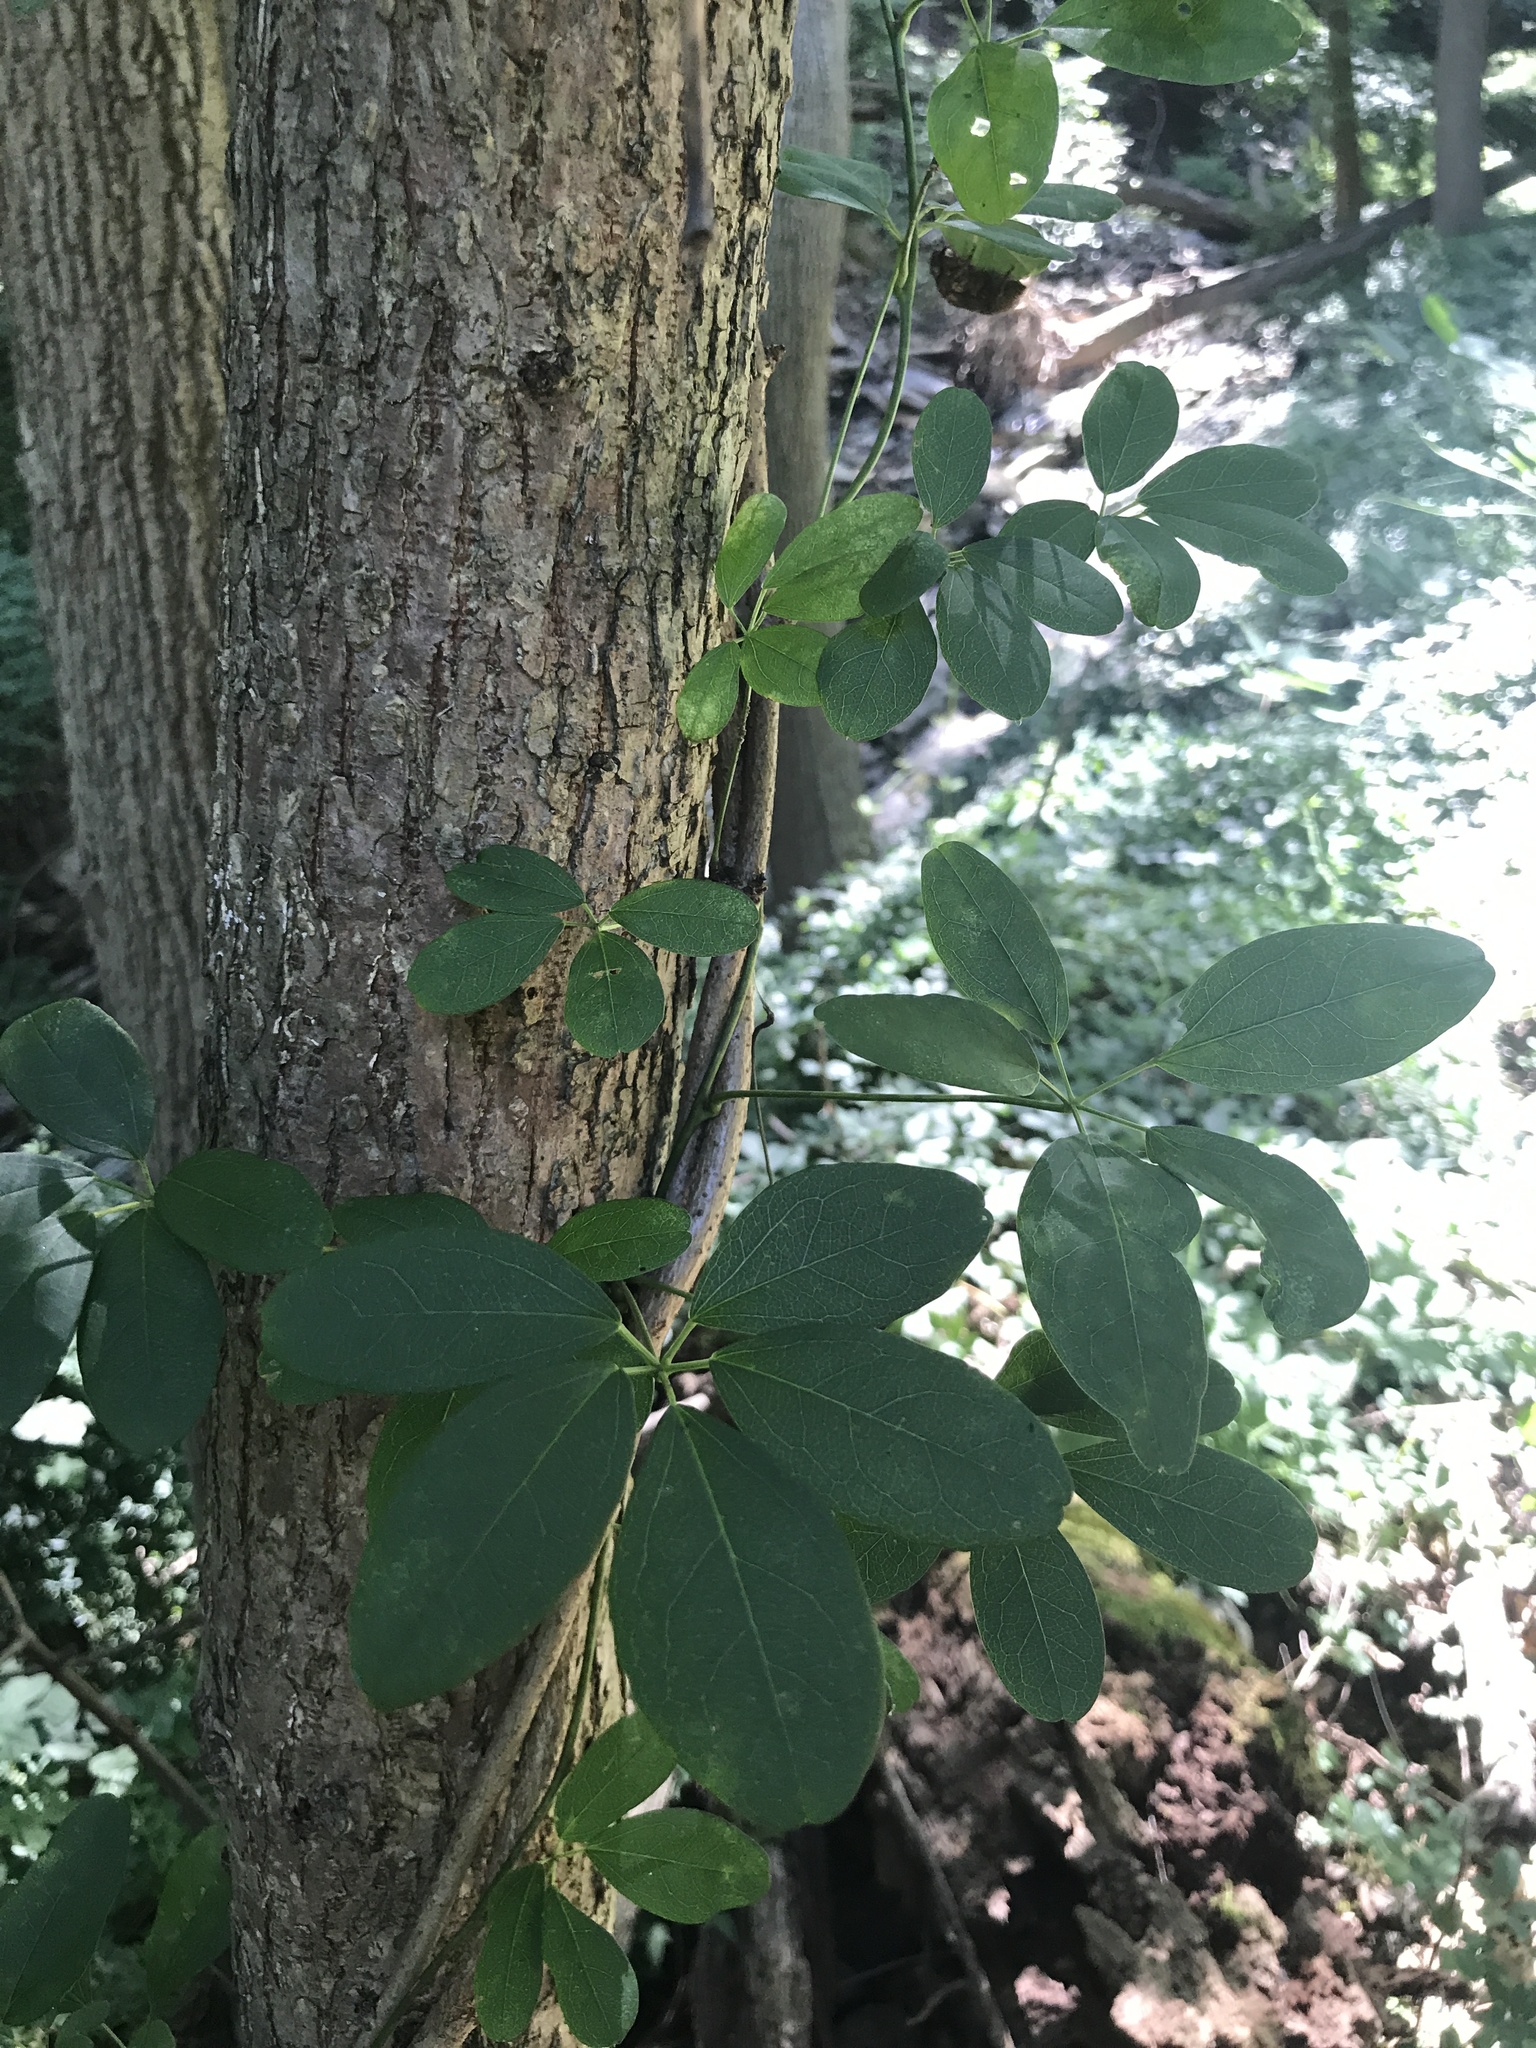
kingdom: Plantae
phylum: Tracheophyta
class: Magnoliopsida
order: Ranunculales
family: Lardizabalaceae
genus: Akebia
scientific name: Akebia quinata
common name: Five-leaf akebia
